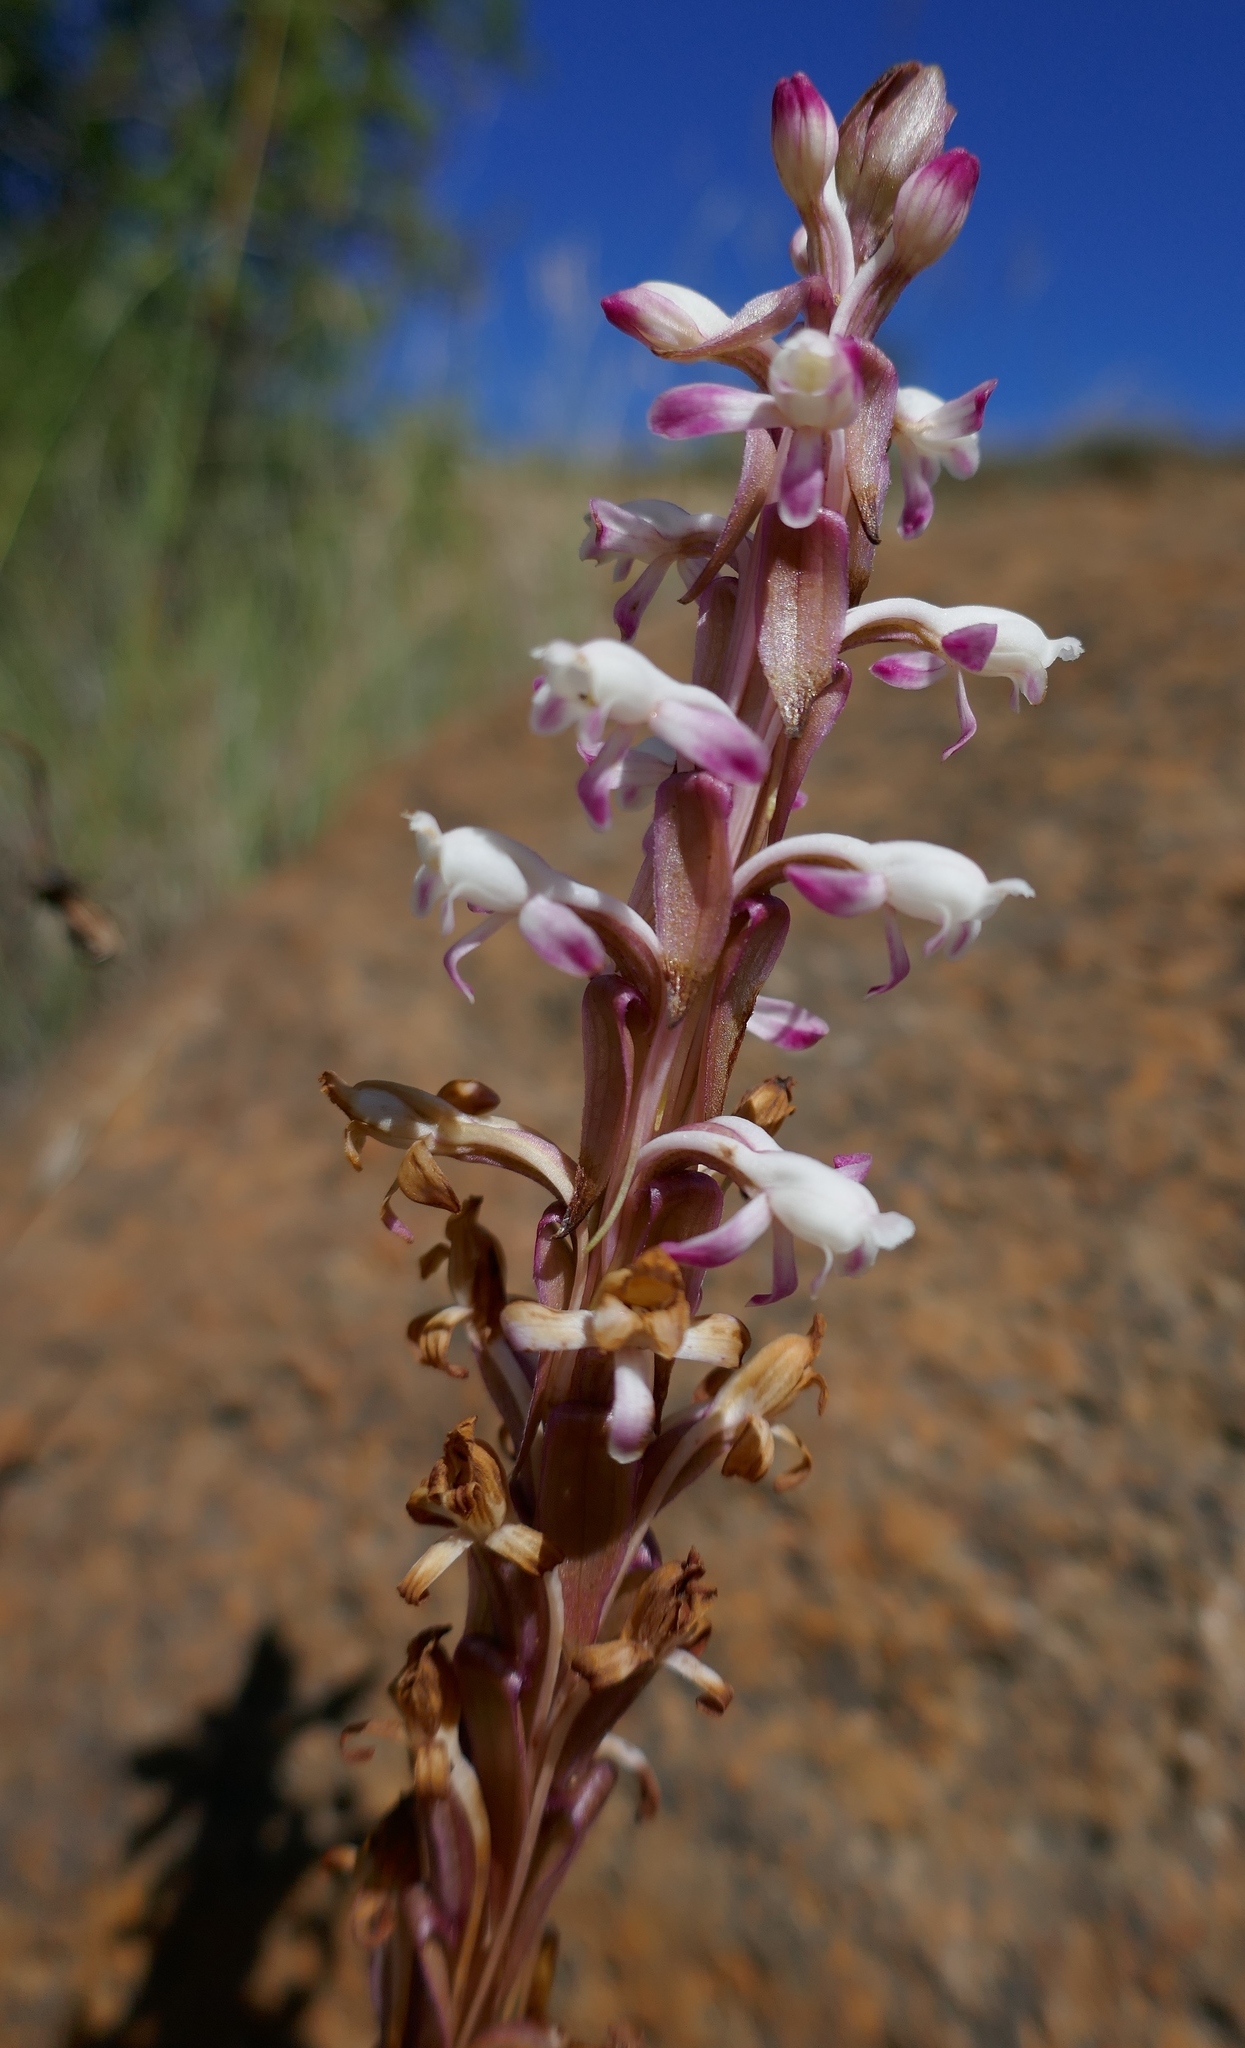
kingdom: Plantae
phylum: Tracheophyta
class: Liliopsida
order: Asparagales
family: Orchidaceae
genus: Satyrium
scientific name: Satyrium longicauda
